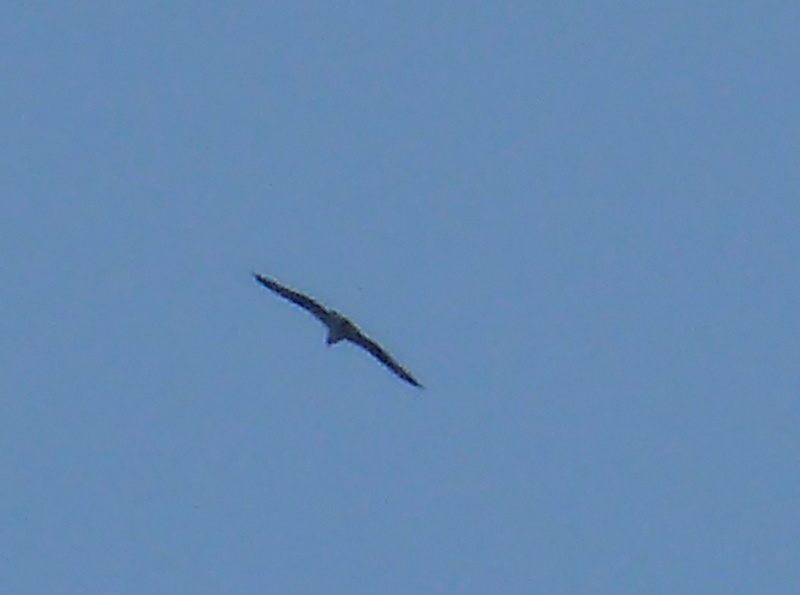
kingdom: Animalia
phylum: Chordata
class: Aves
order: Accipitriformes
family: Pandionidae
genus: Pandion
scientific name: Pandion haliaetus
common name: Osprey
